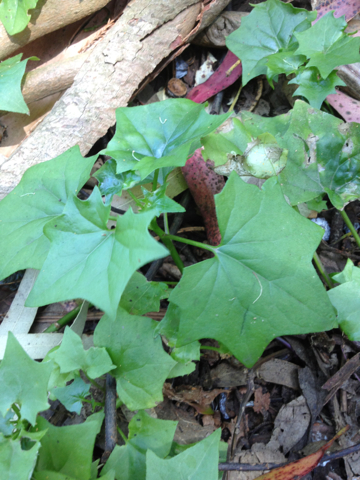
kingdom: Plantae
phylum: Tracheophyta
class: Magnoliopsida
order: Asterales
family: Asteraceae
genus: Delairea
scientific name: Delairea odorata
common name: Cape-ivy
